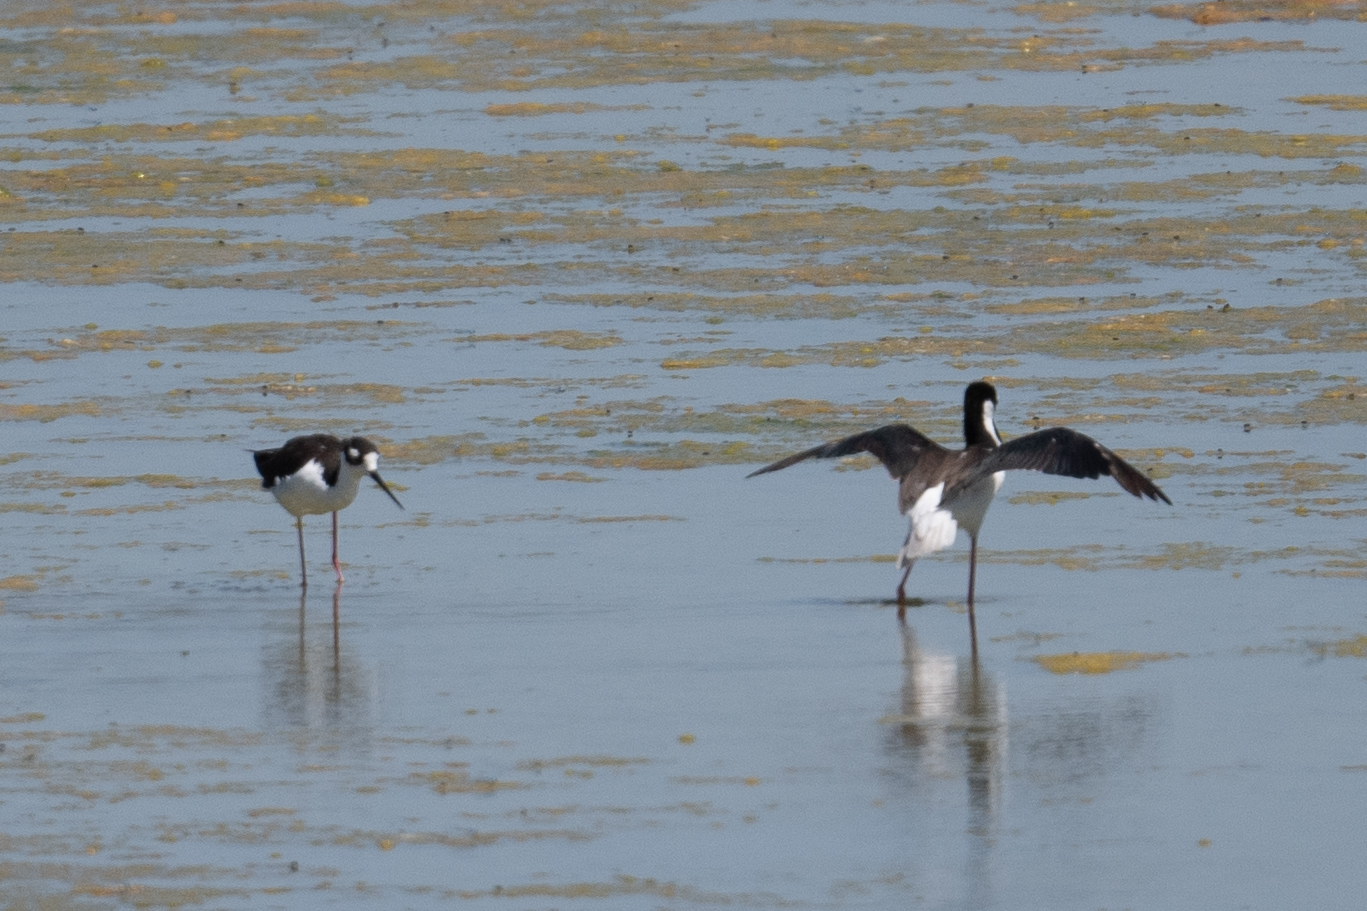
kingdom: Animalia
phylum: Chordata
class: Aves
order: Charadriiformes
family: Recurvirostridae
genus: Himantopus
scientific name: Himantopus mexicanus
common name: Black-necked stilt
